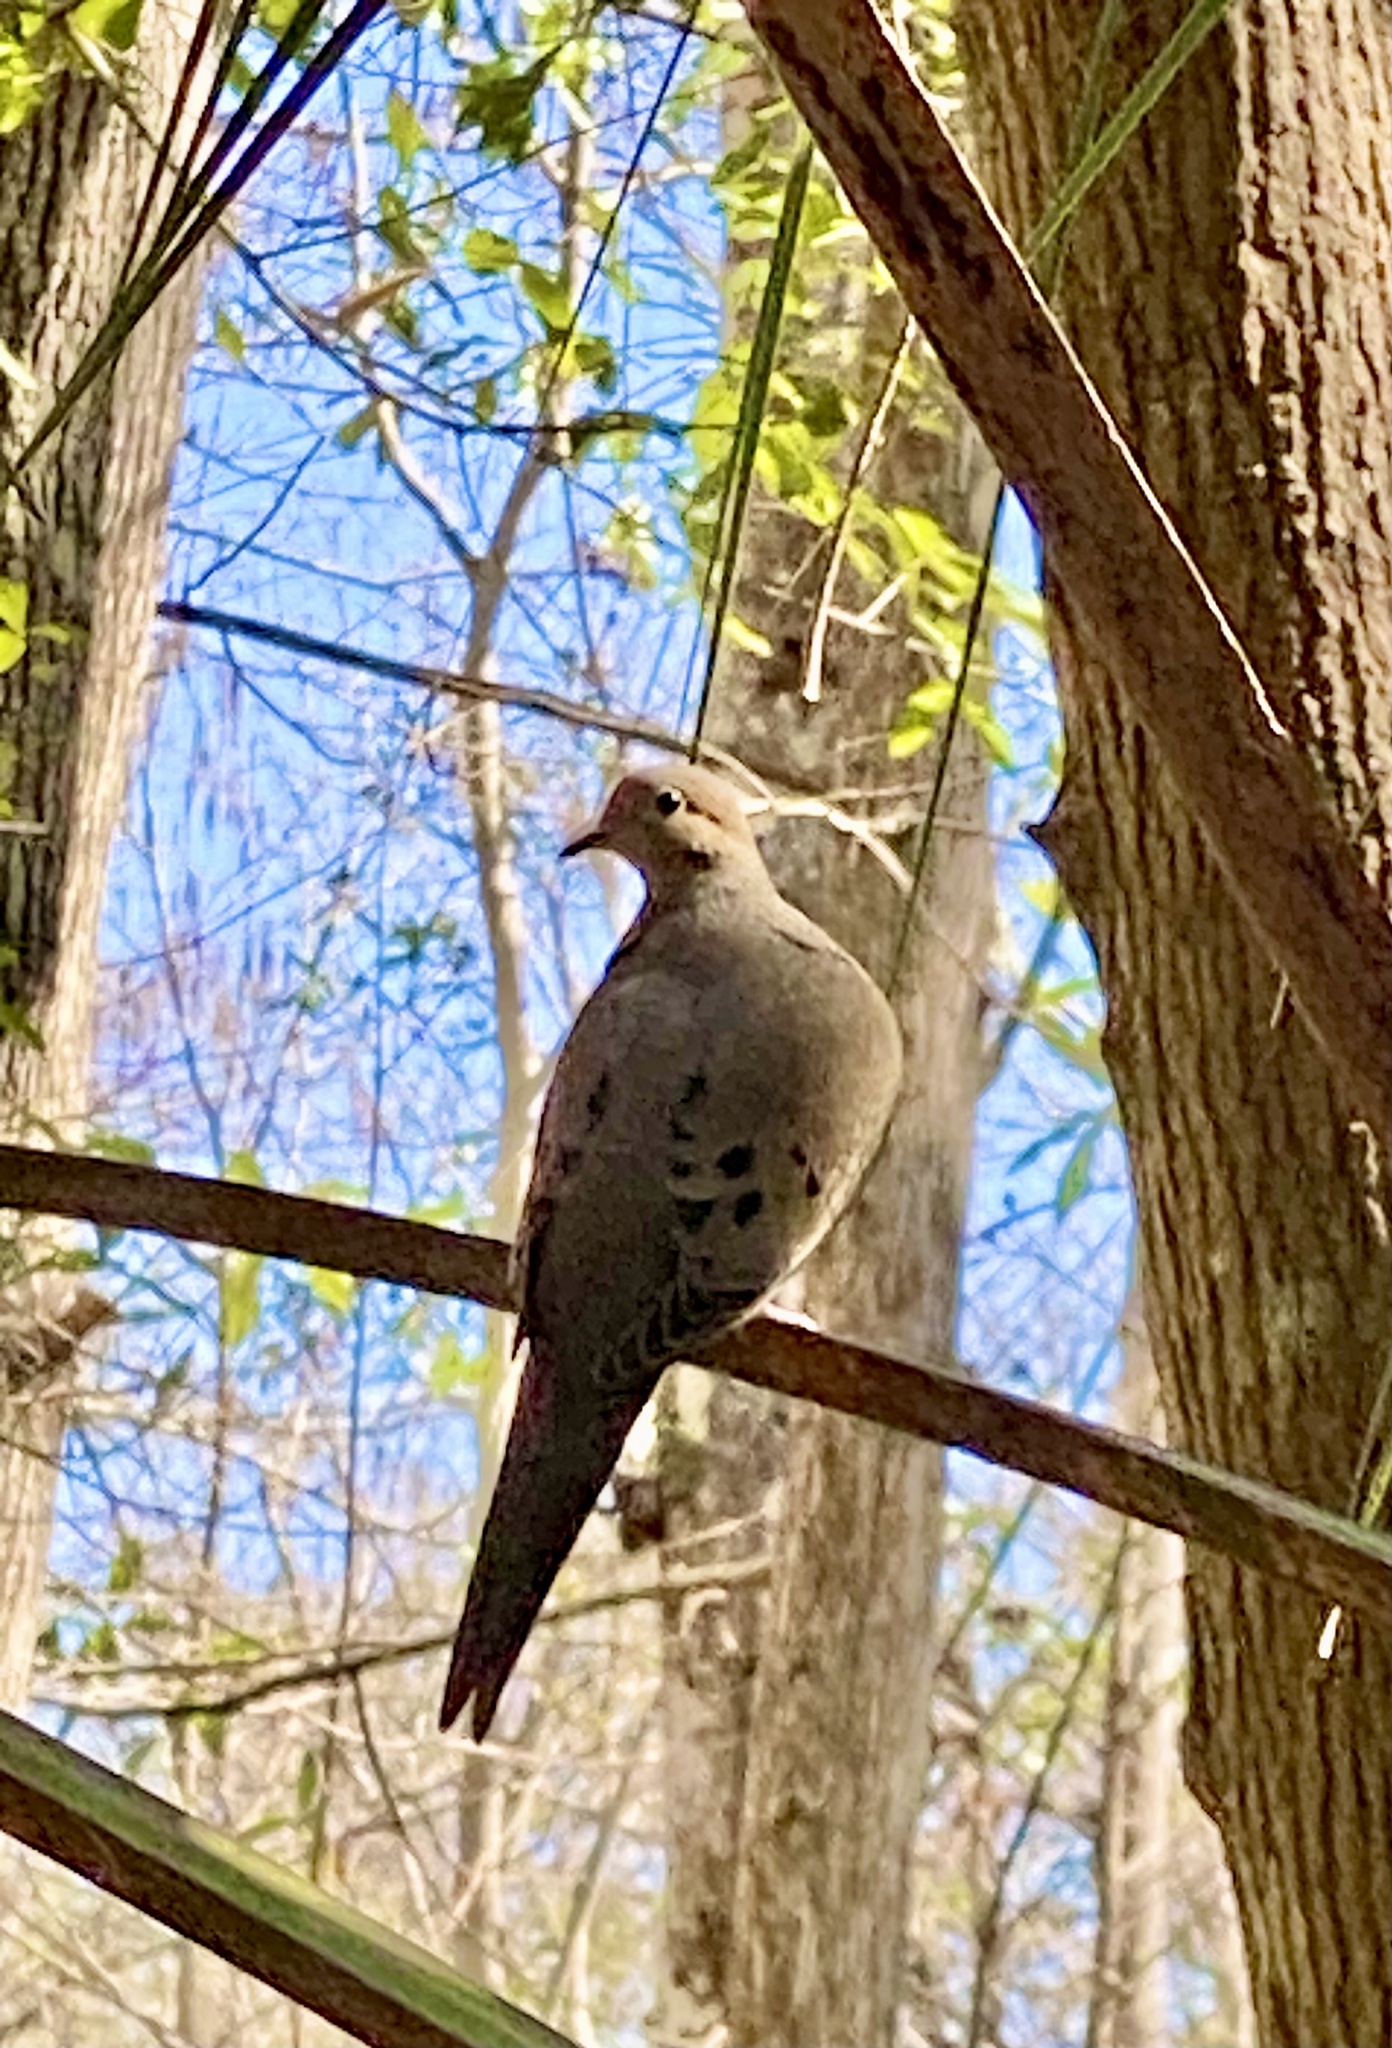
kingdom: Animalia
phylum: Chordata
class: Aves
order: Columbiformes
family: Columbidae
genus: Zenaida
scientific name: Zenaida macroura
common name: Mourning dove
